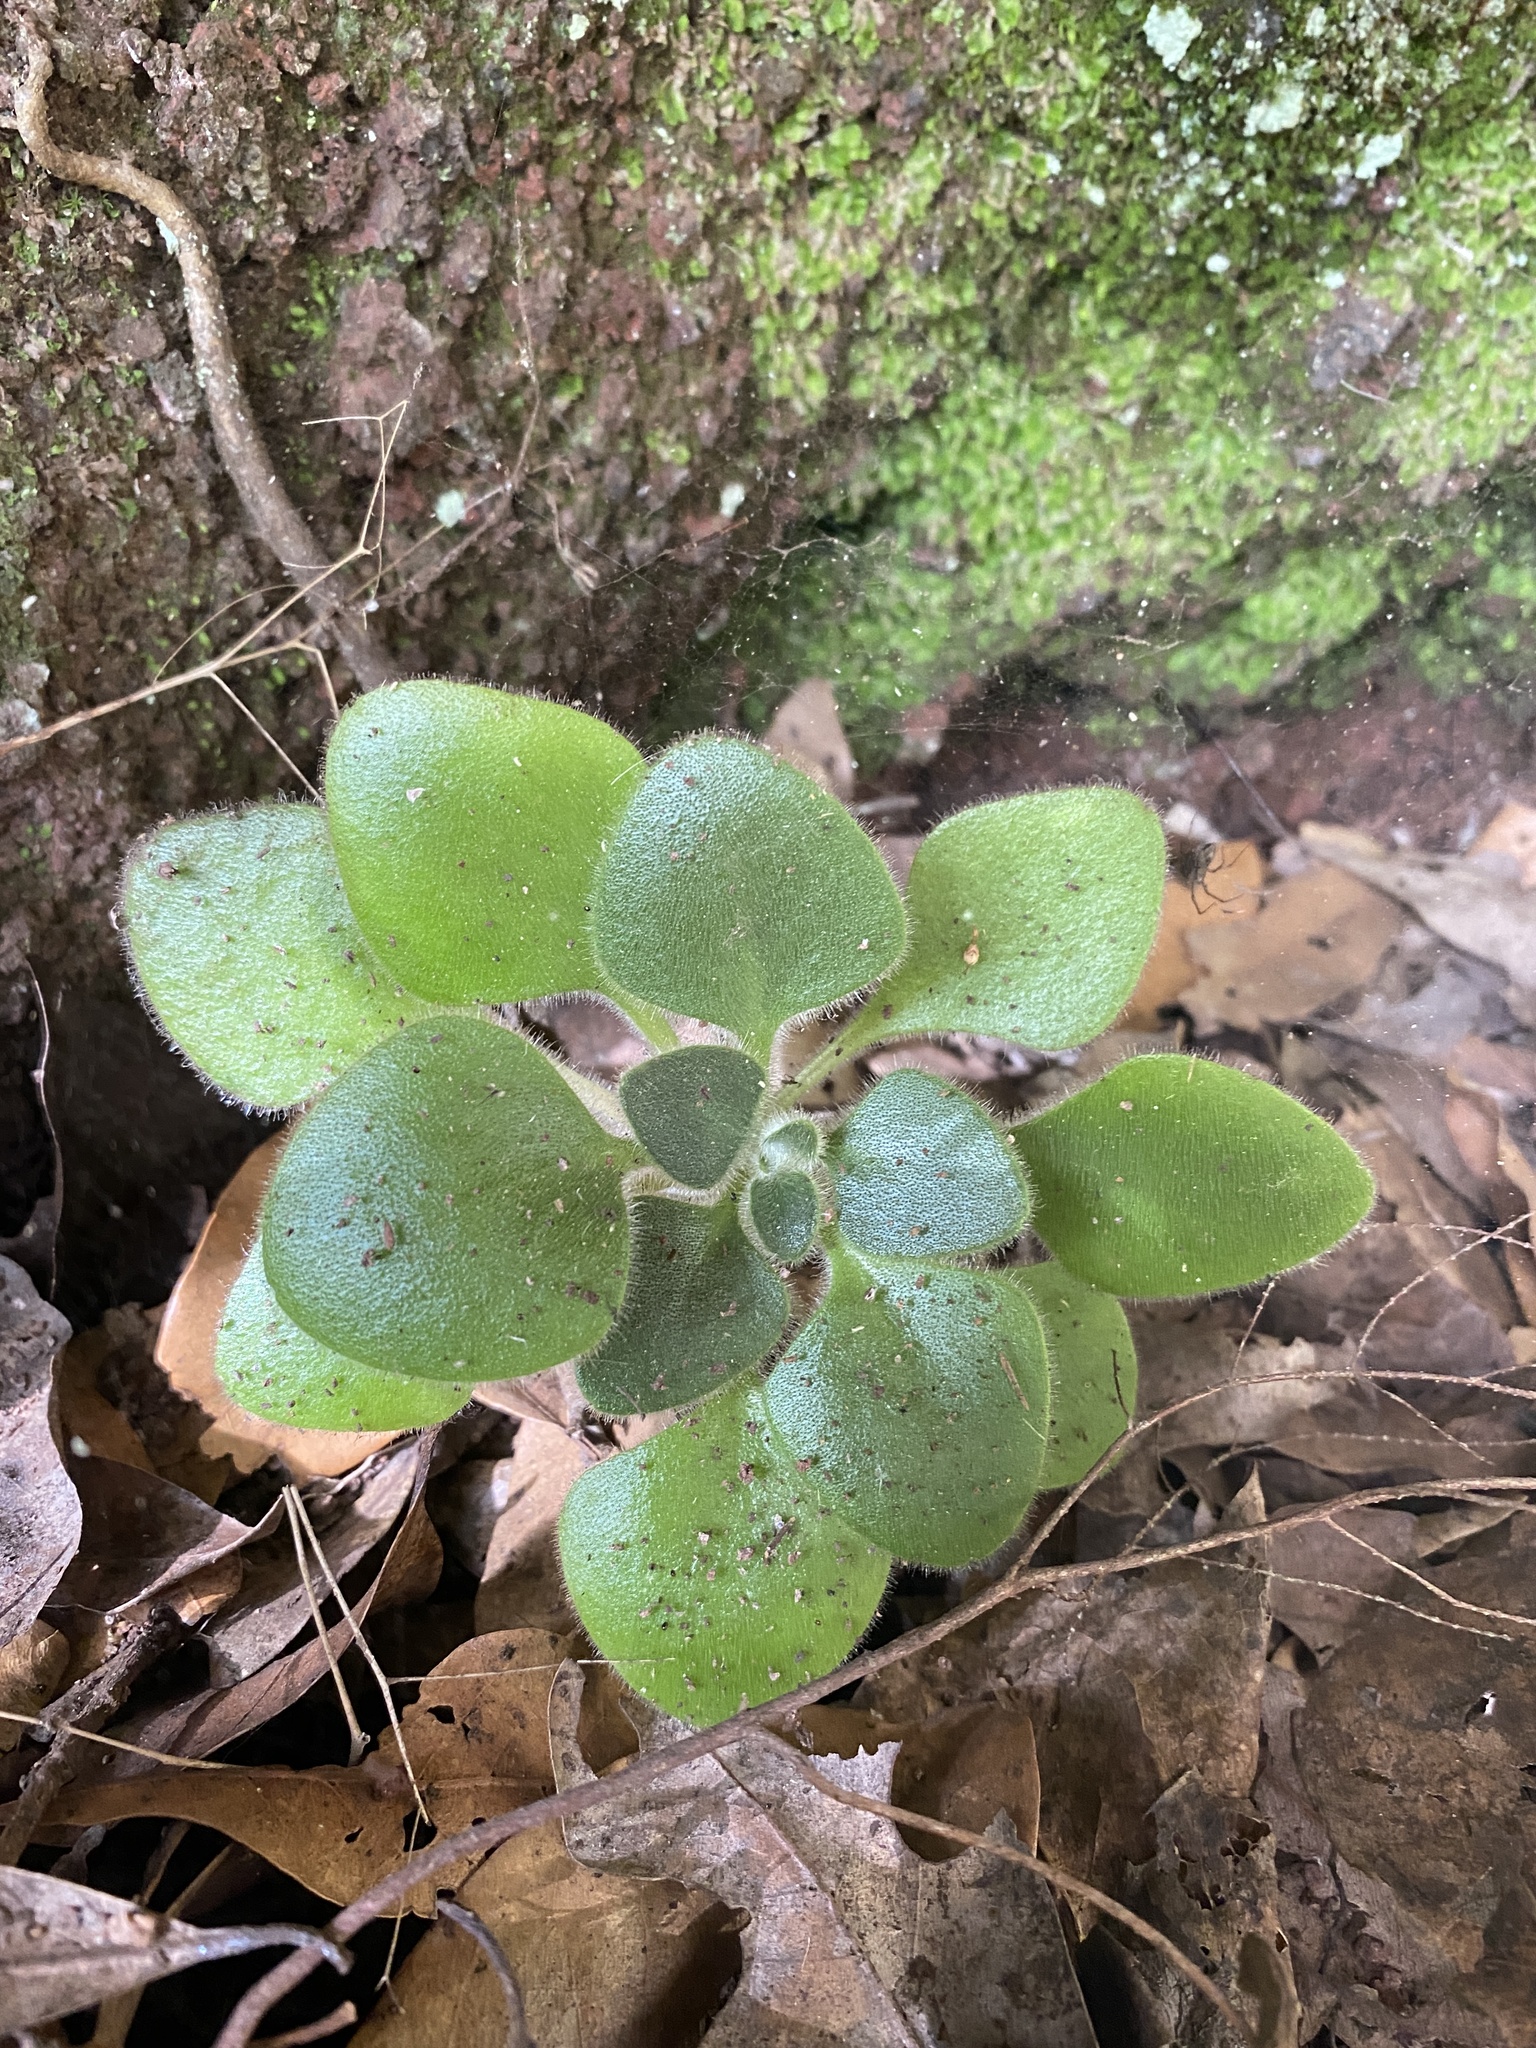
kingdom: Plantae
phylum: Tracheophyta
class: Magnoliopsida
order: Saxifragales
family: Crassulaceae
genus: Aichryson
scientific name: Aichryson laxum
